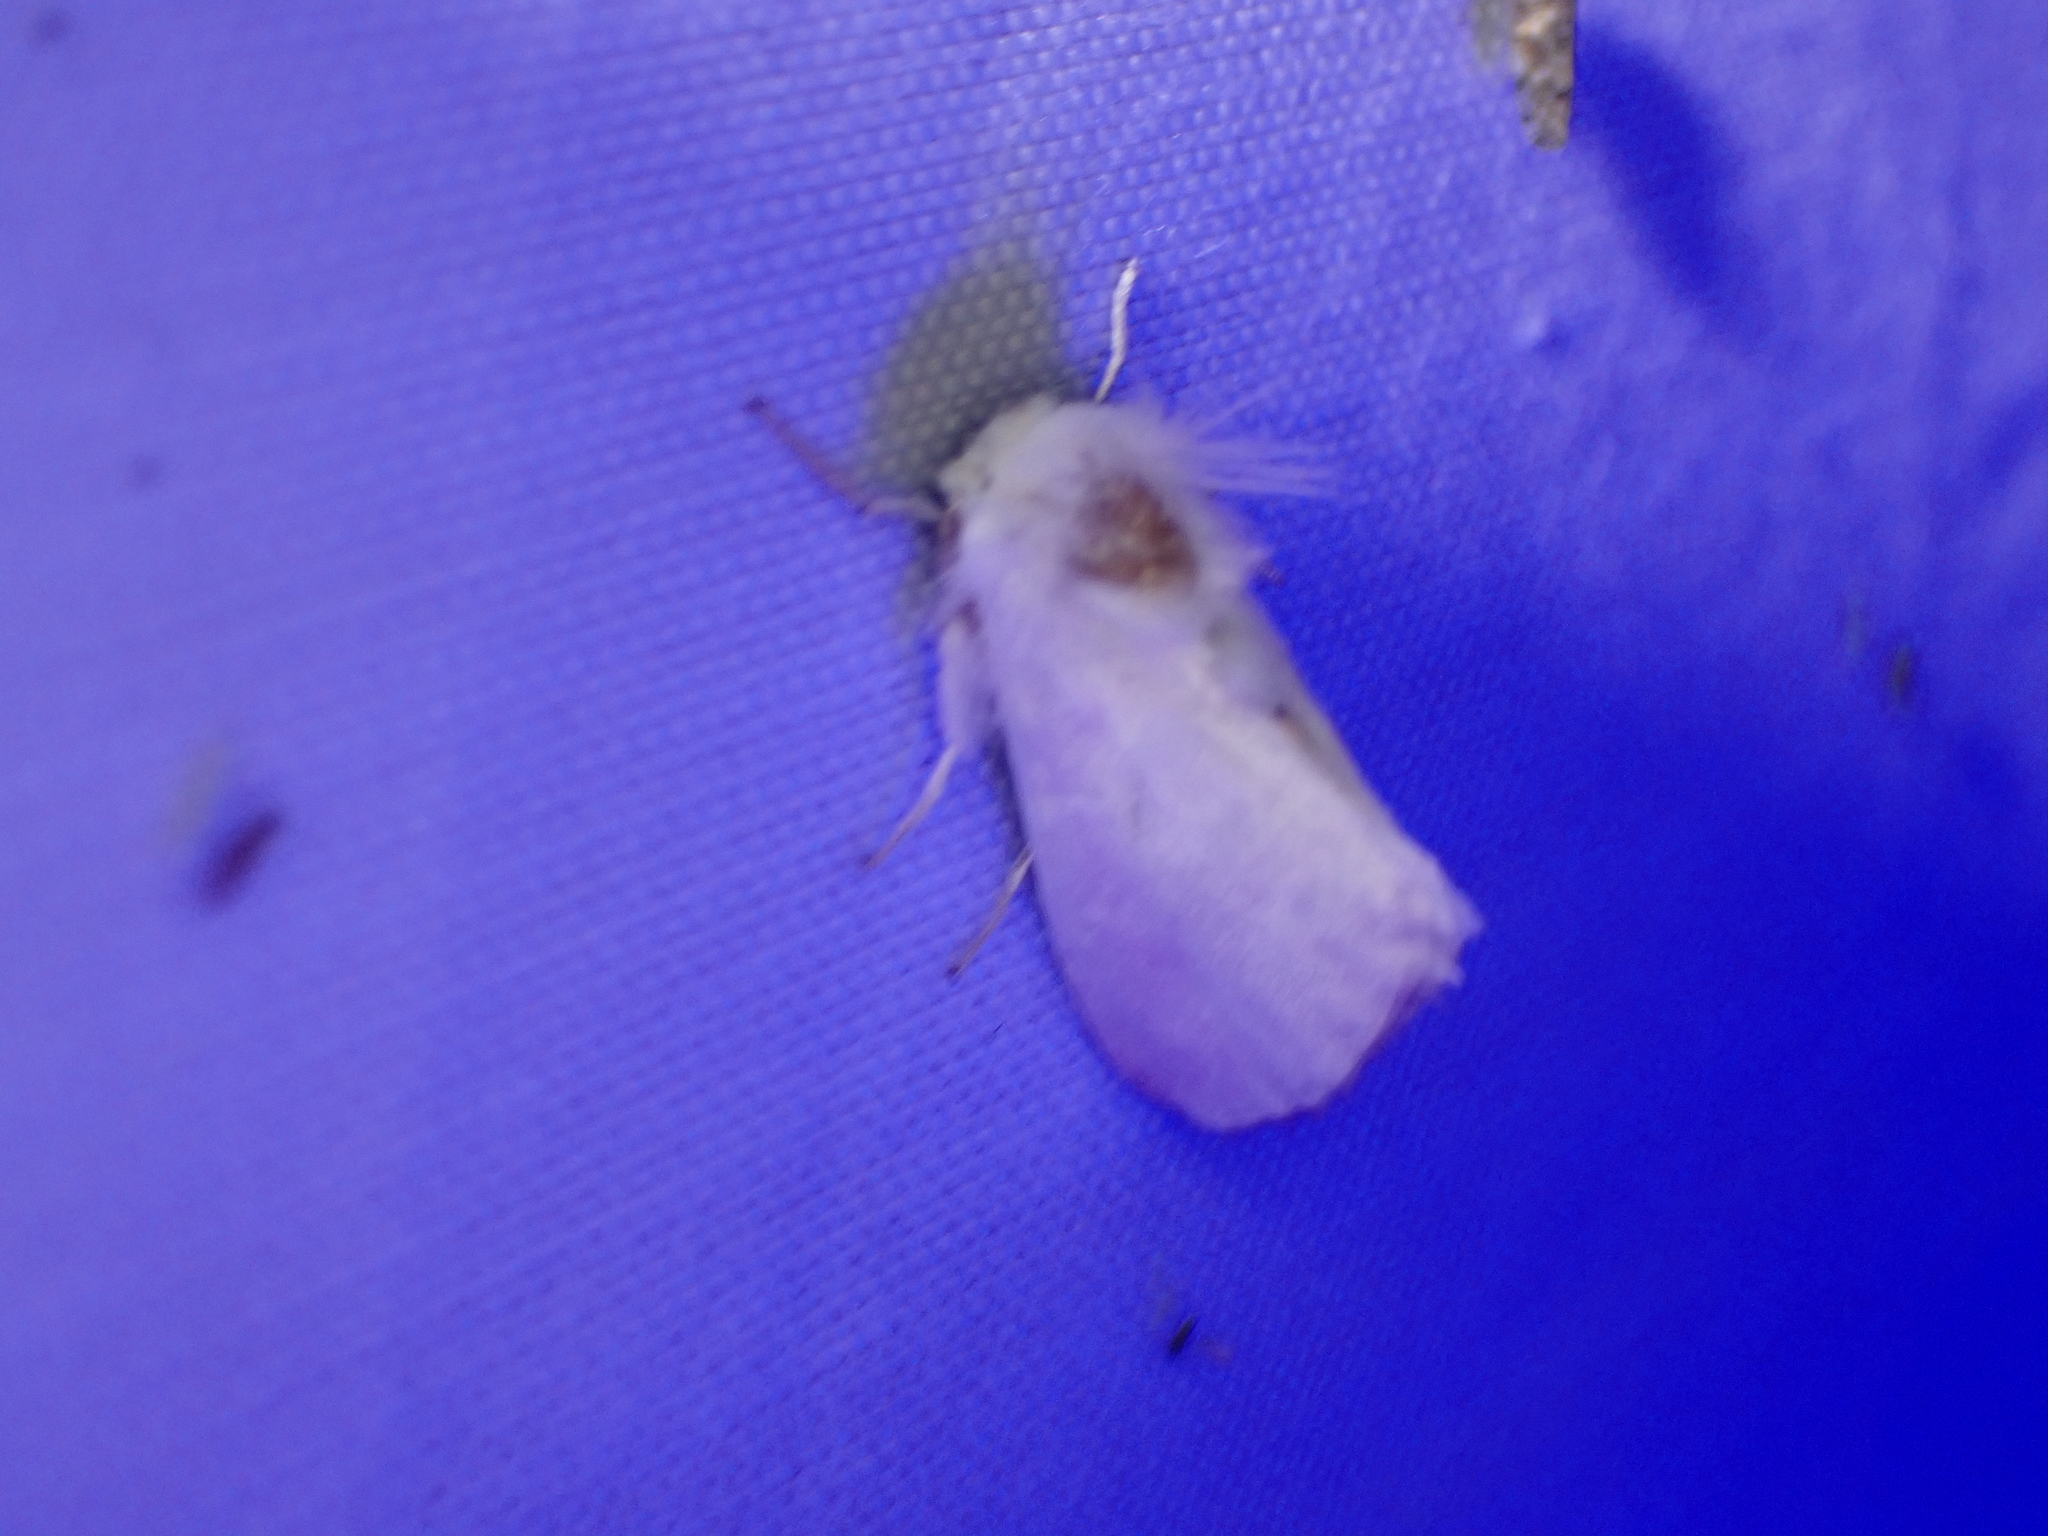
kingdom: Animalia
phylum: Arthropoda
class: Insecta
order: Lepidoptera
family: Megalopygidae
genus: Norape
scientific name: Norape cretata
